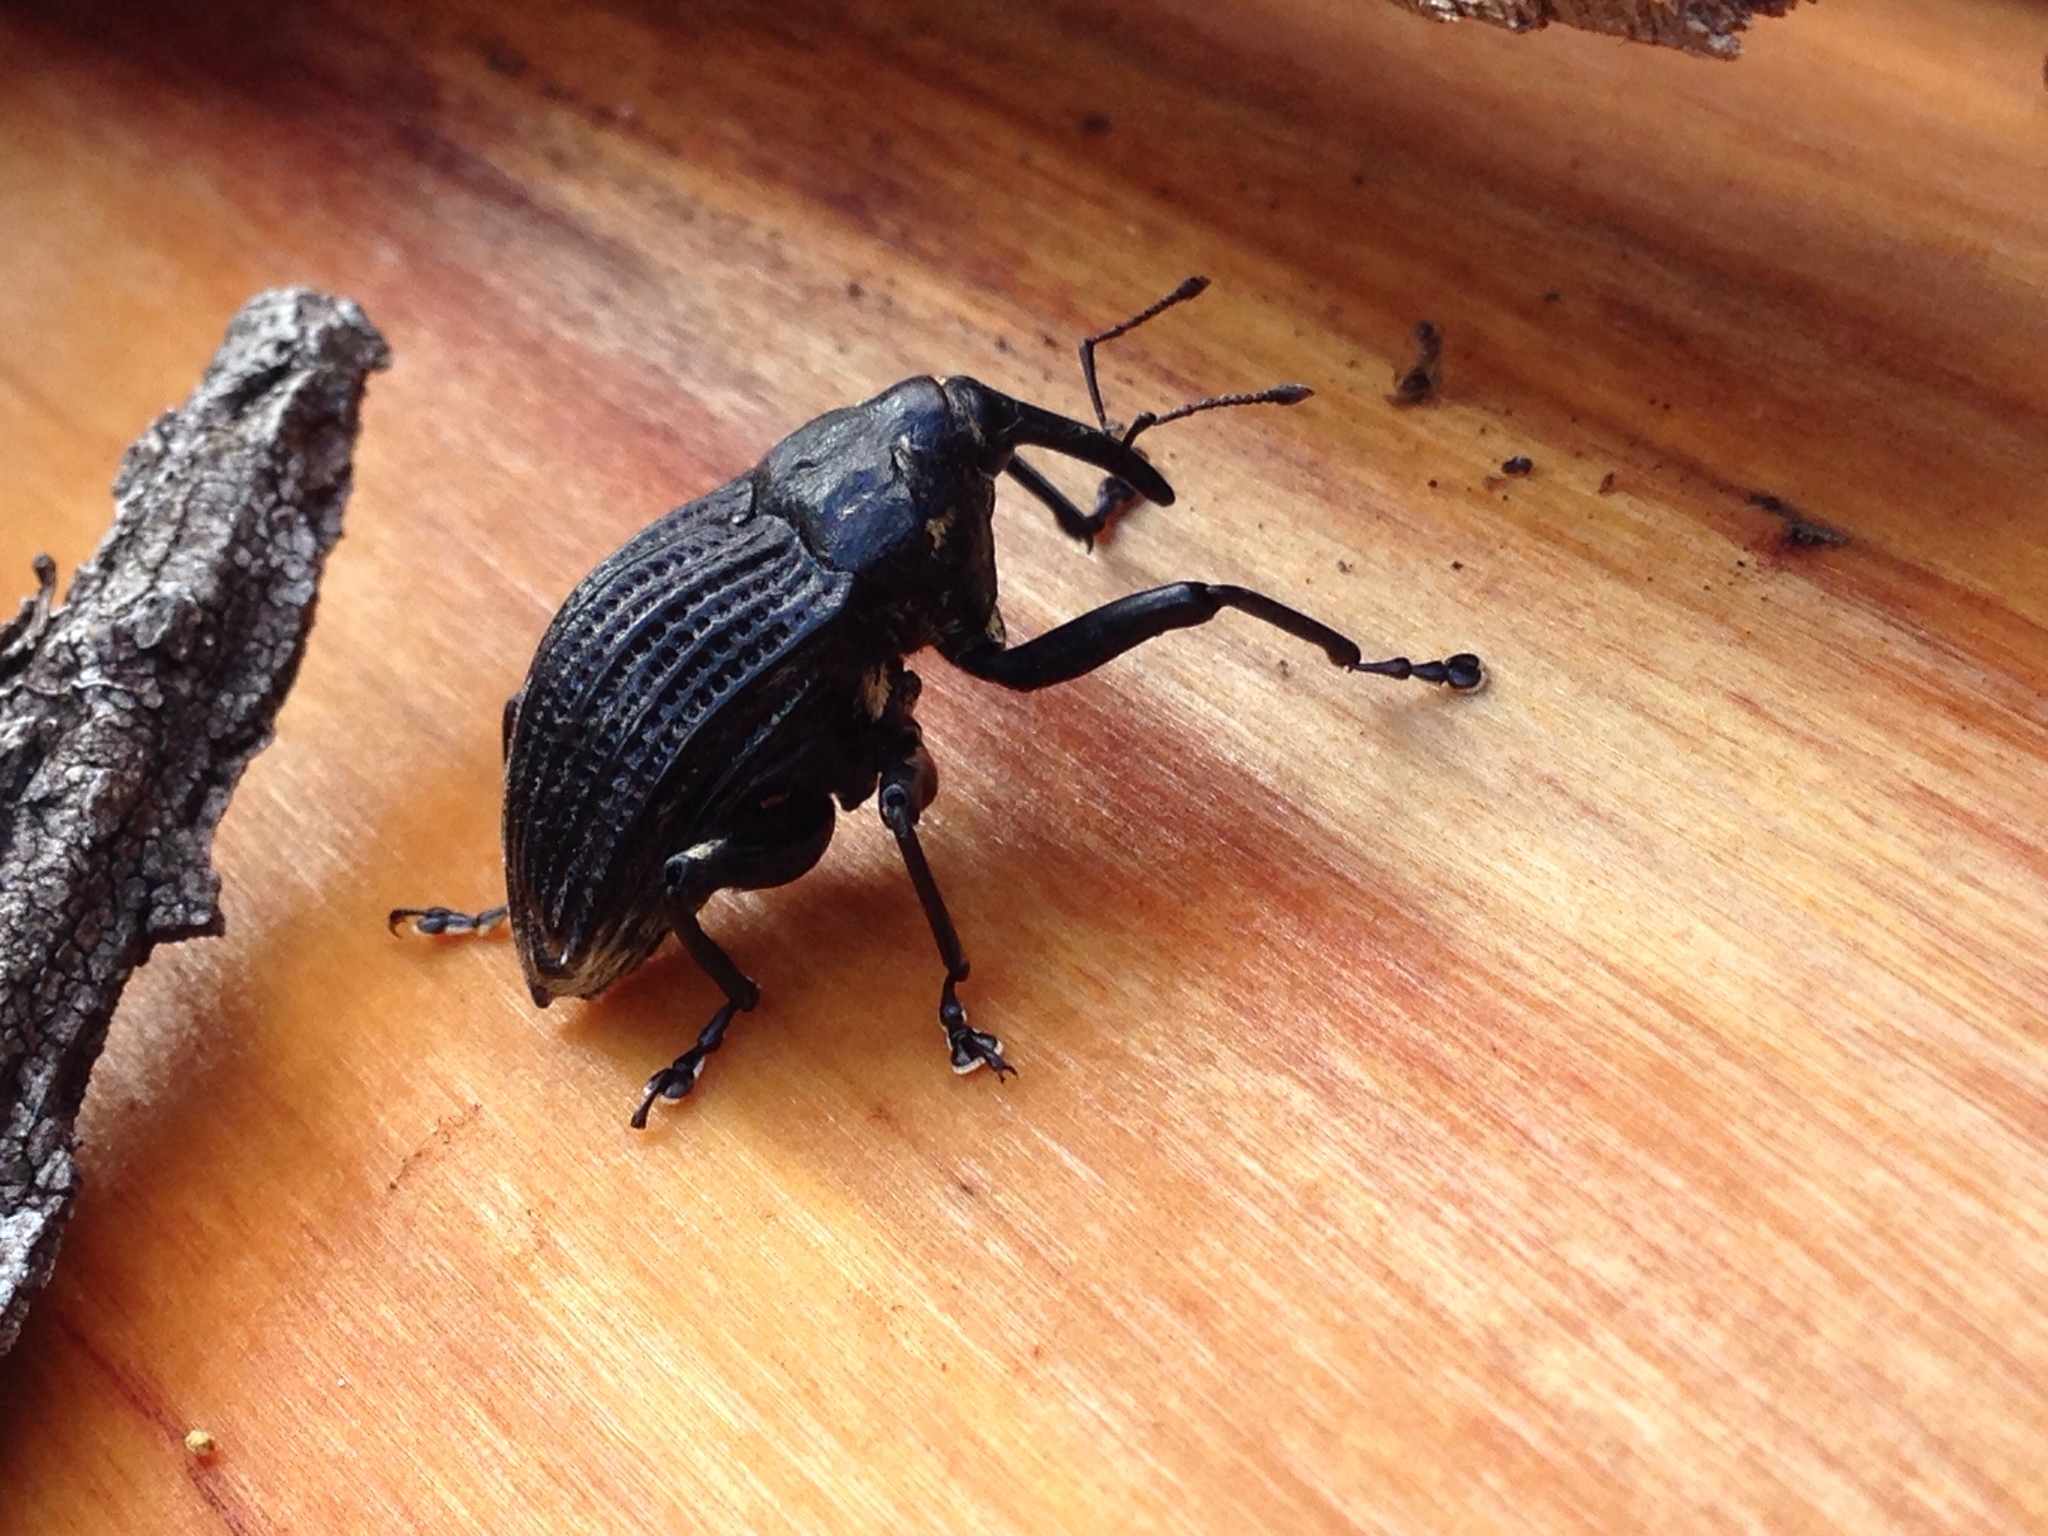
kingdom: Animalia
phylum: Arthropoda
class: Insecta
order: Coleoptera
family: Curculionidae
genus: Rhynchodes
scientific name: Rhynchodes ursus
